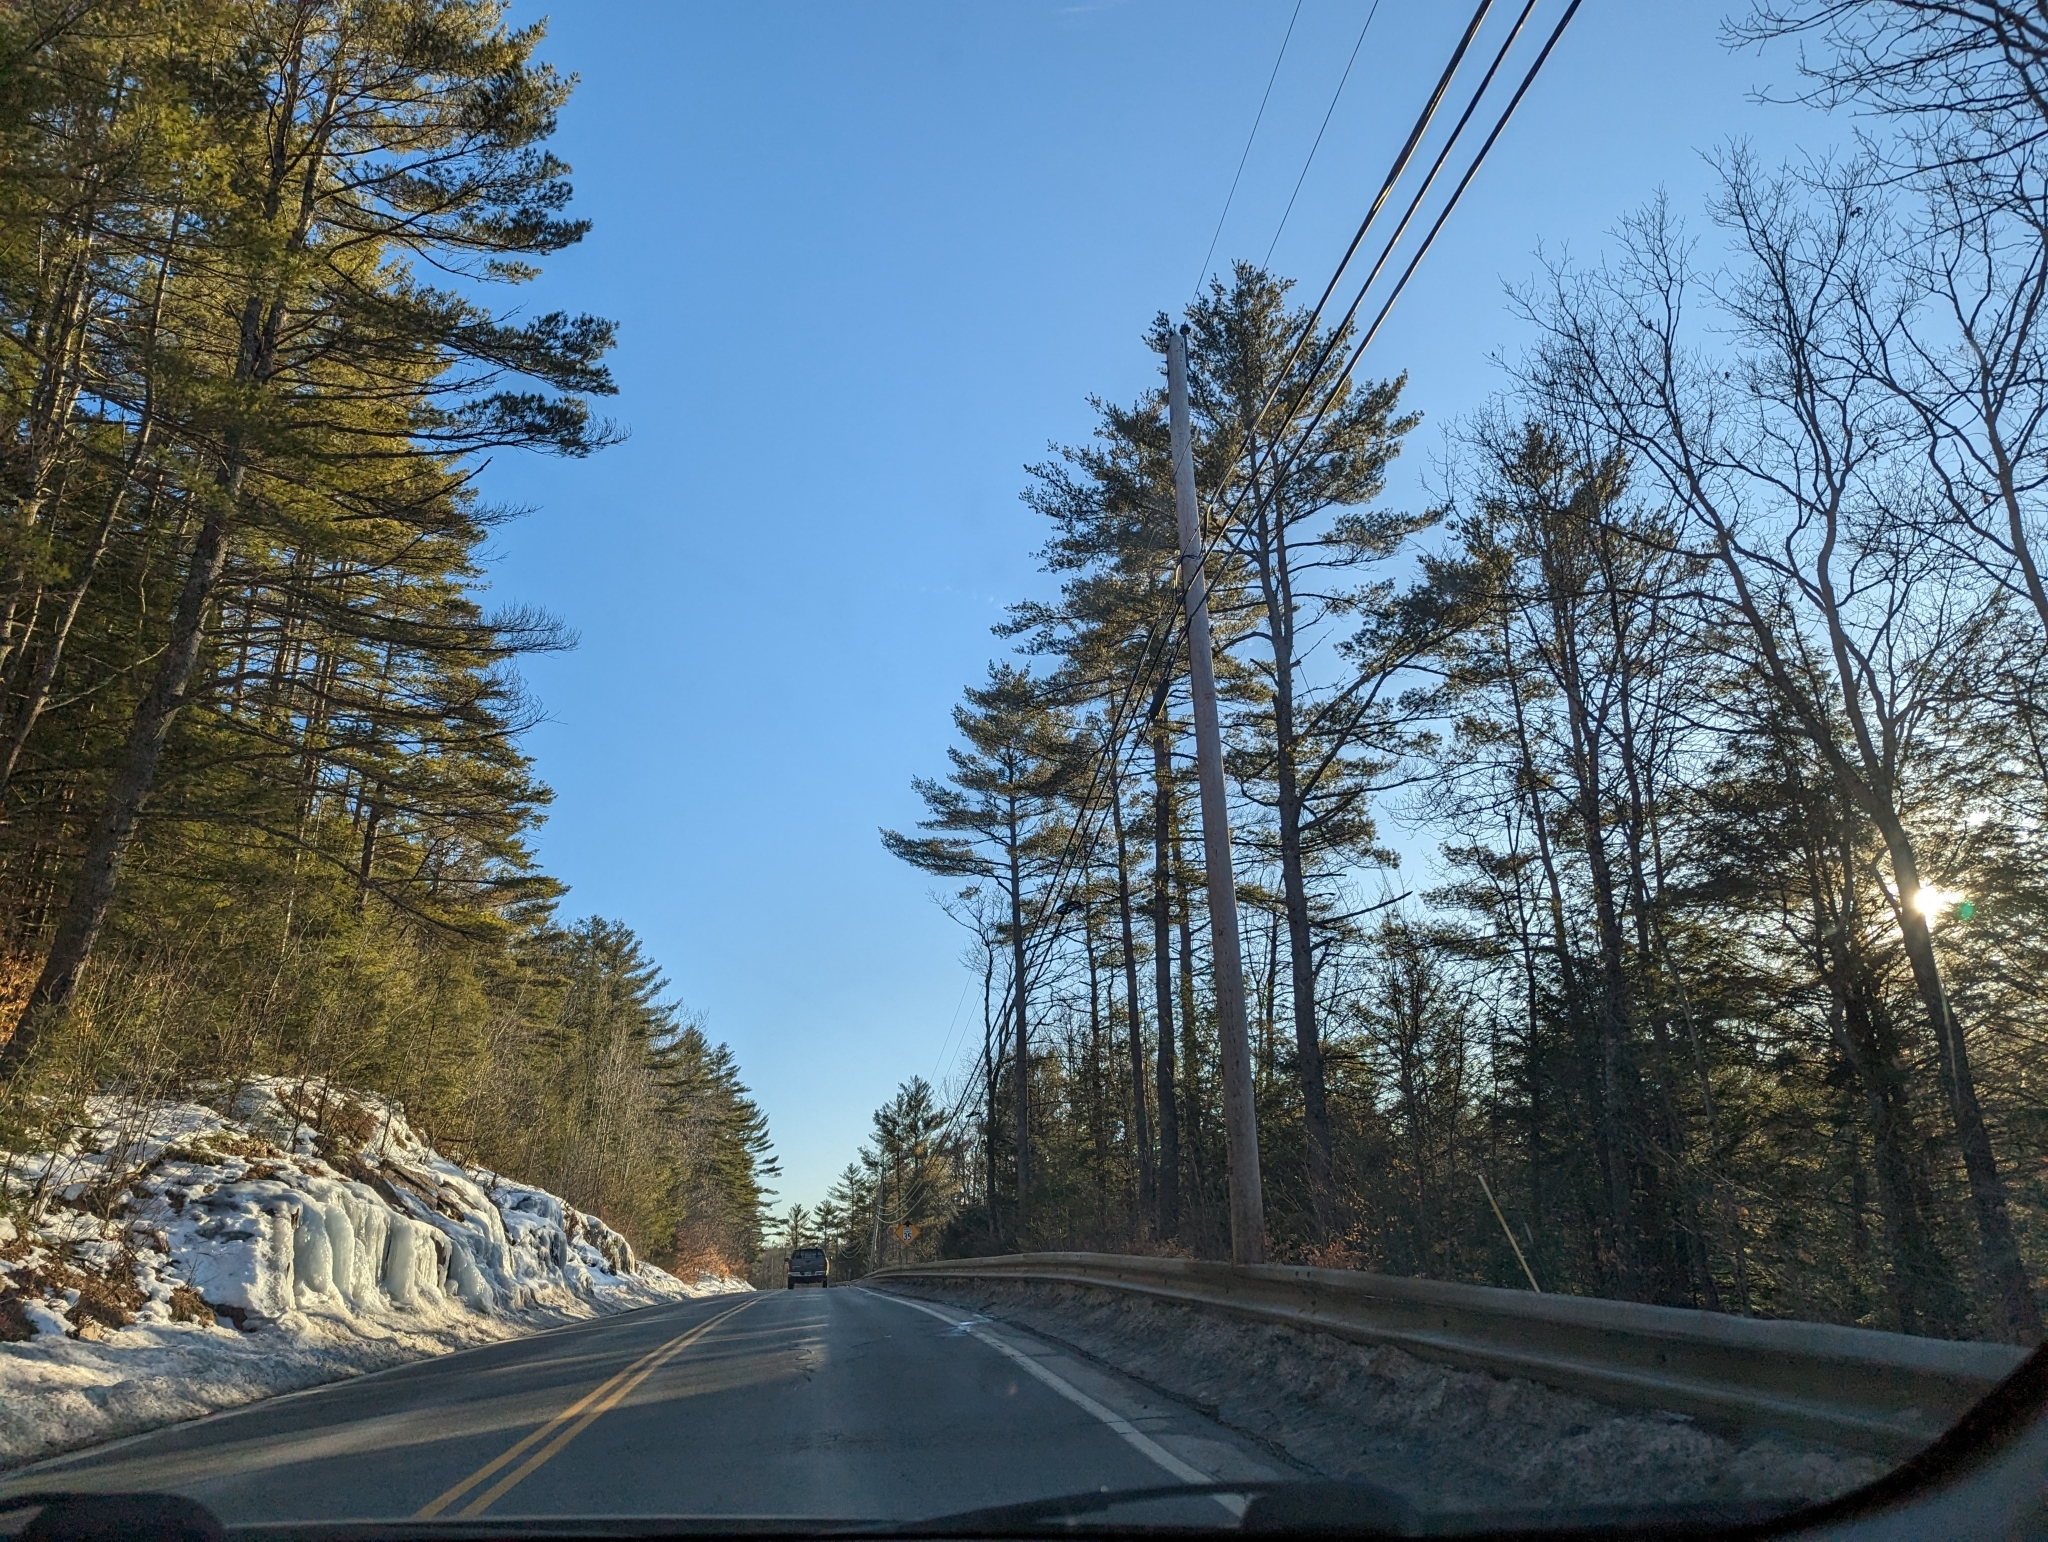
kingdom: Plantae
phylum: Tracheophyta
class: Pinopsida
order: Pinales
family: Pinaceae
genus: Pinus
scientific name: Pinus strobus
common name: Weymouth pine
